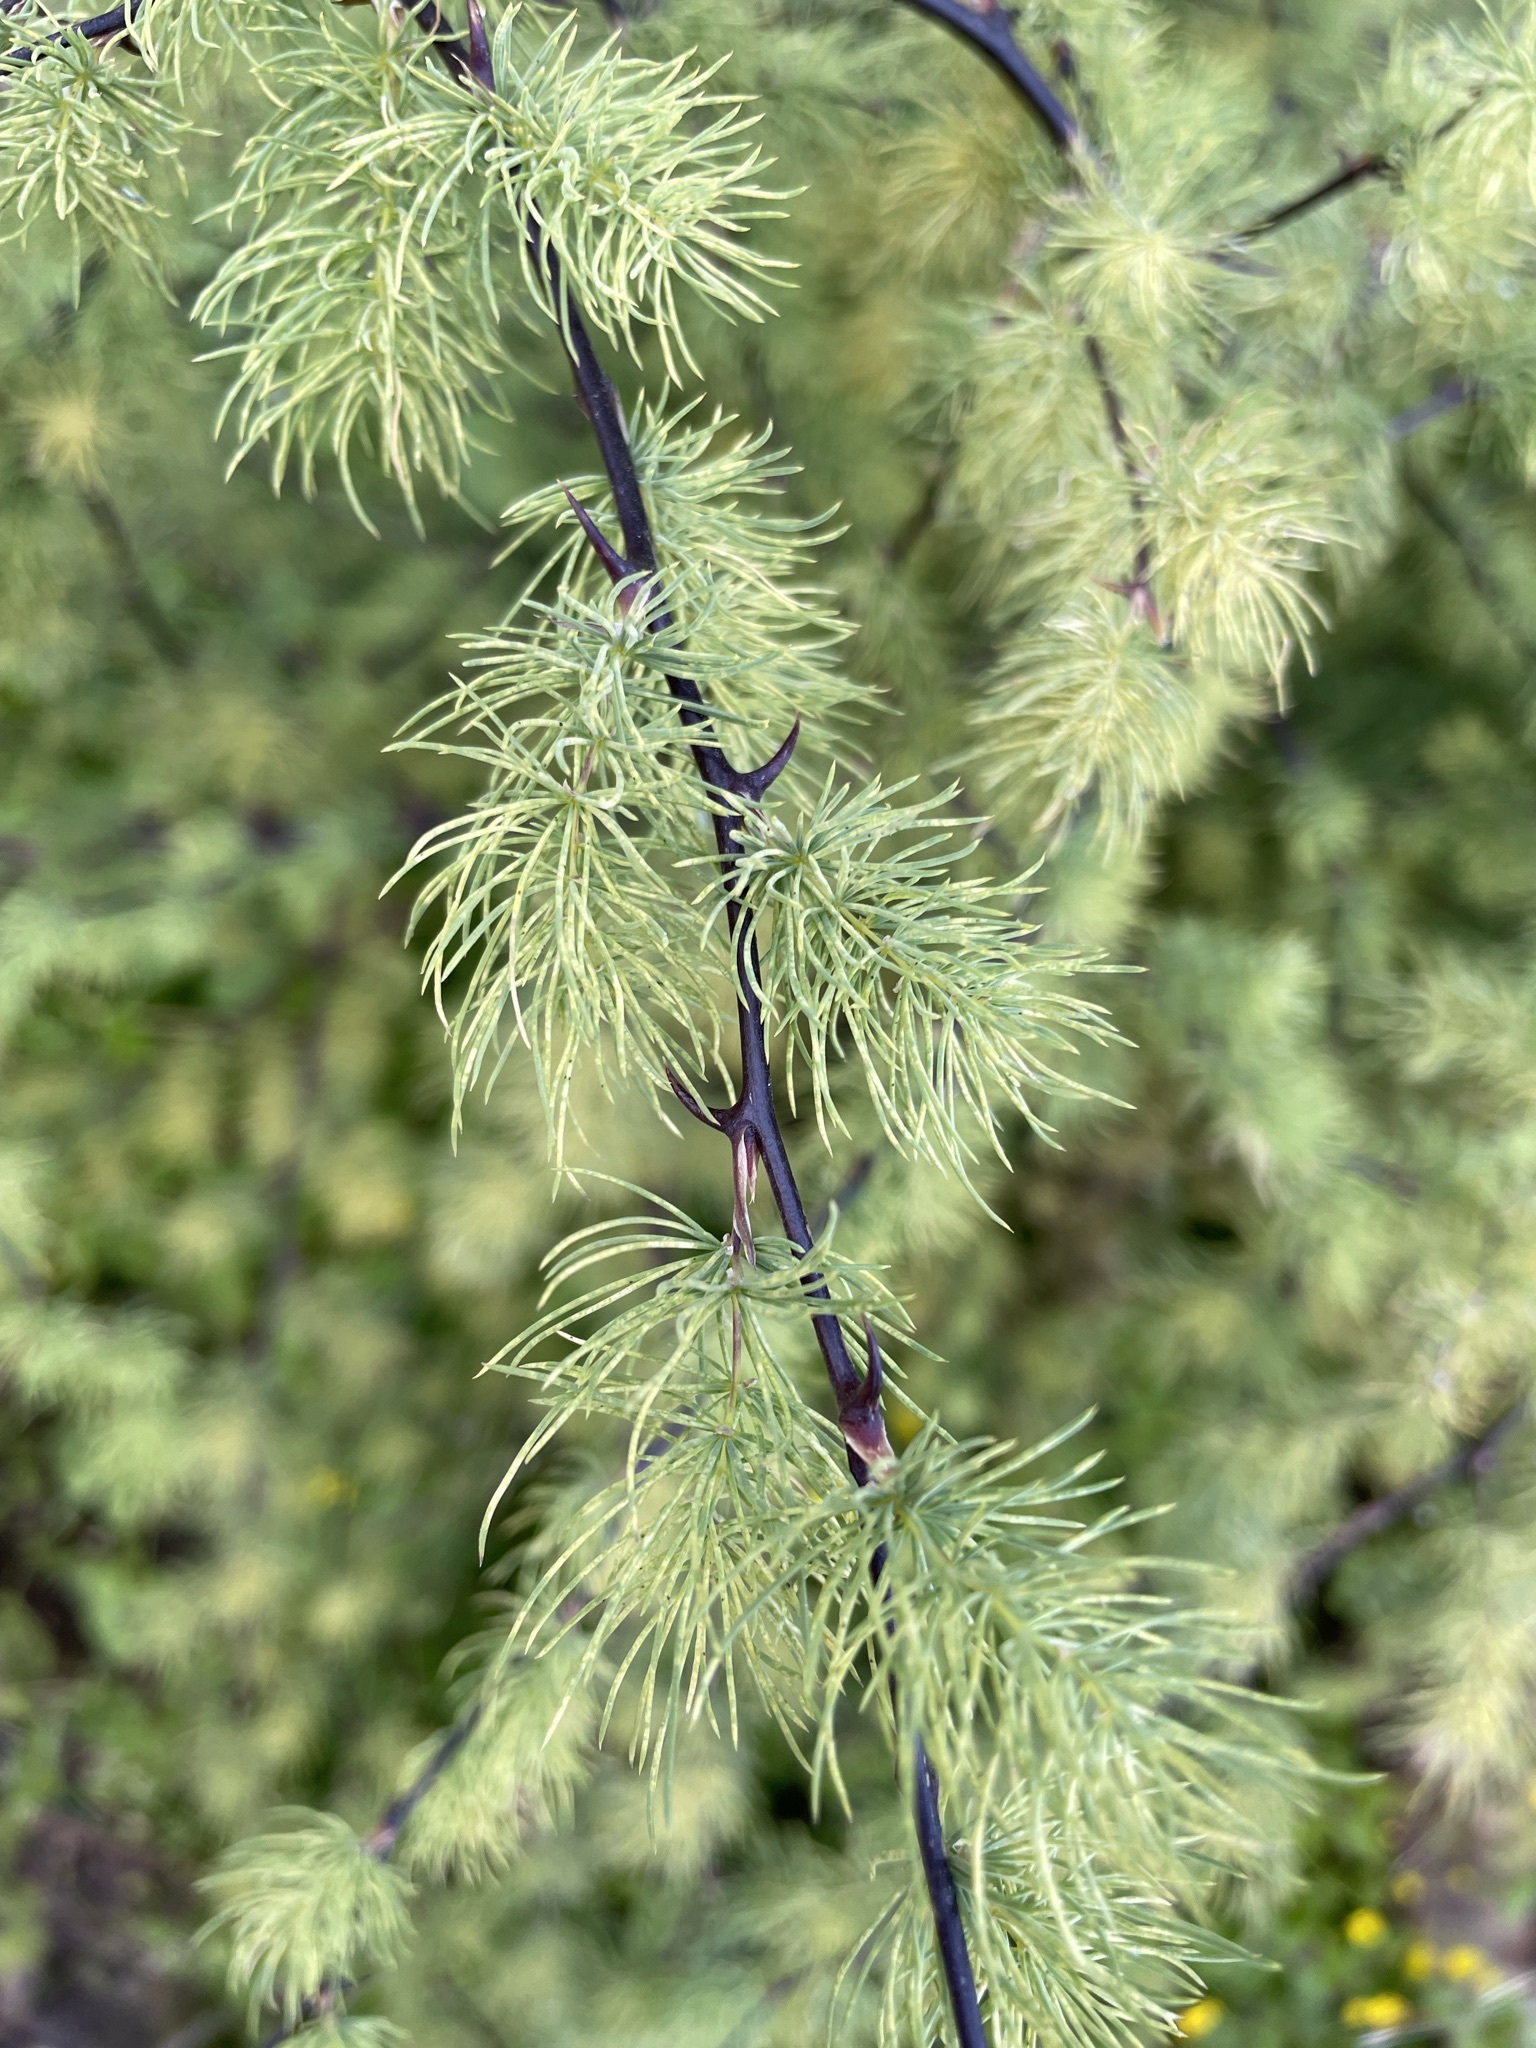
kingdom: Plantae
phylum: Tracheophyta
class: Liliopsida
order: Asparagales
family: Asparagaceae
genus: Asparagus
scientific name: Asparagus rubicundus
